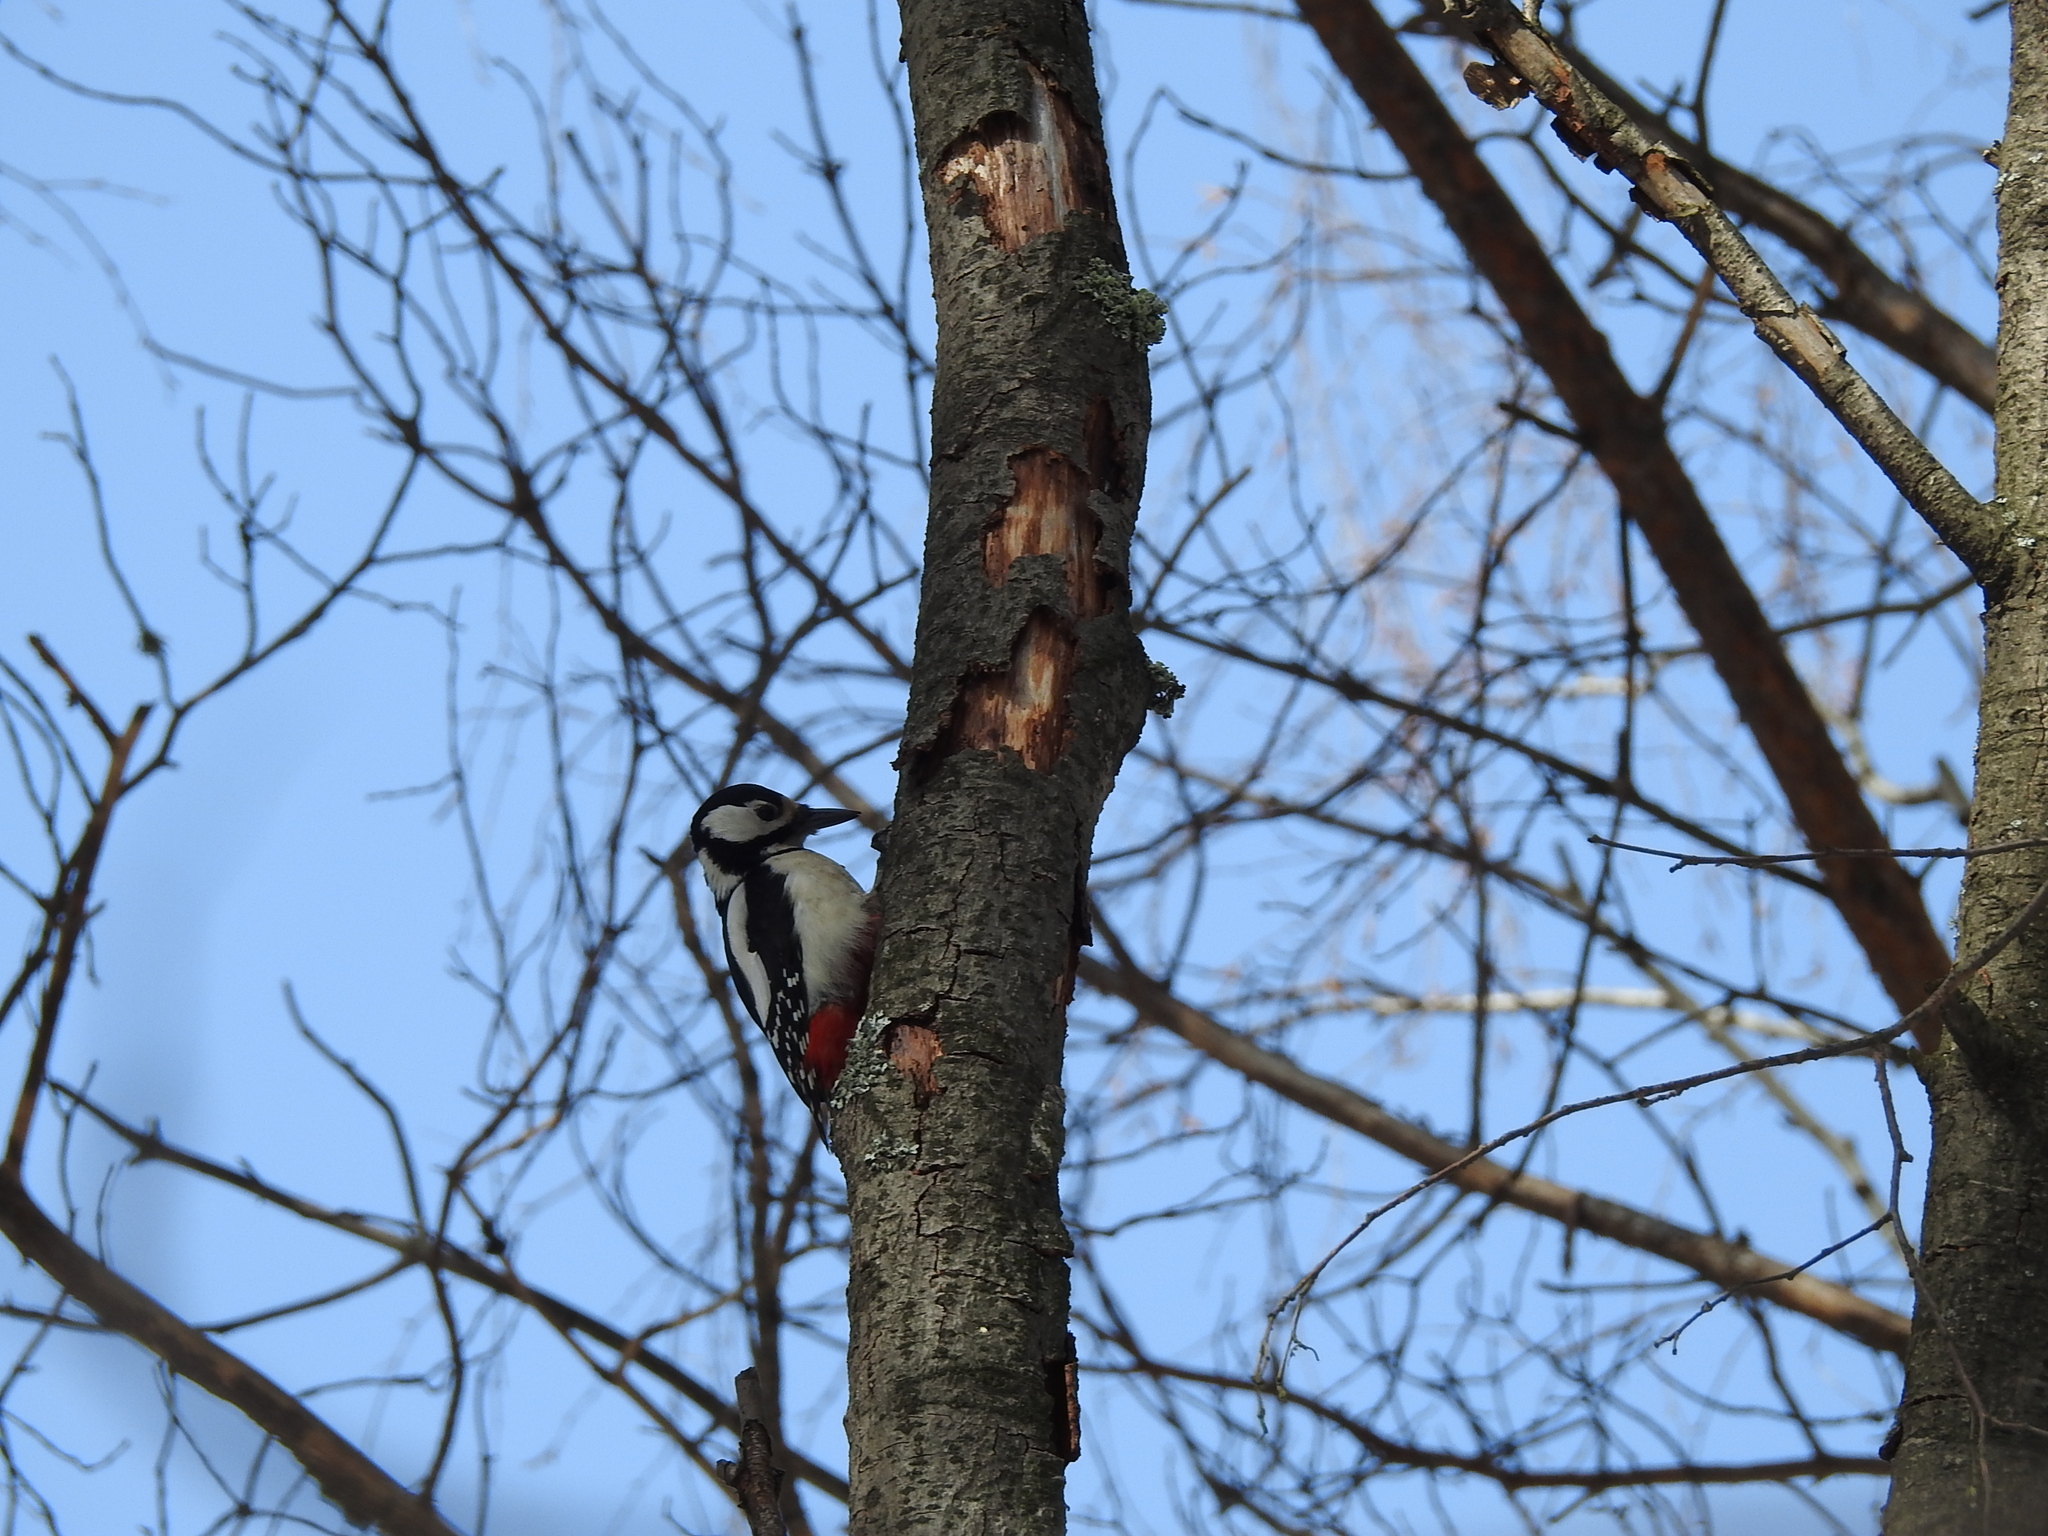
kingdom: Animalia
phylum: Chordata
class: Aves
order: Piciformes
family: Picidae
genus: Dendrocopos
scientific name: Dendrocopos major
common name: Great spotted woodpecker
